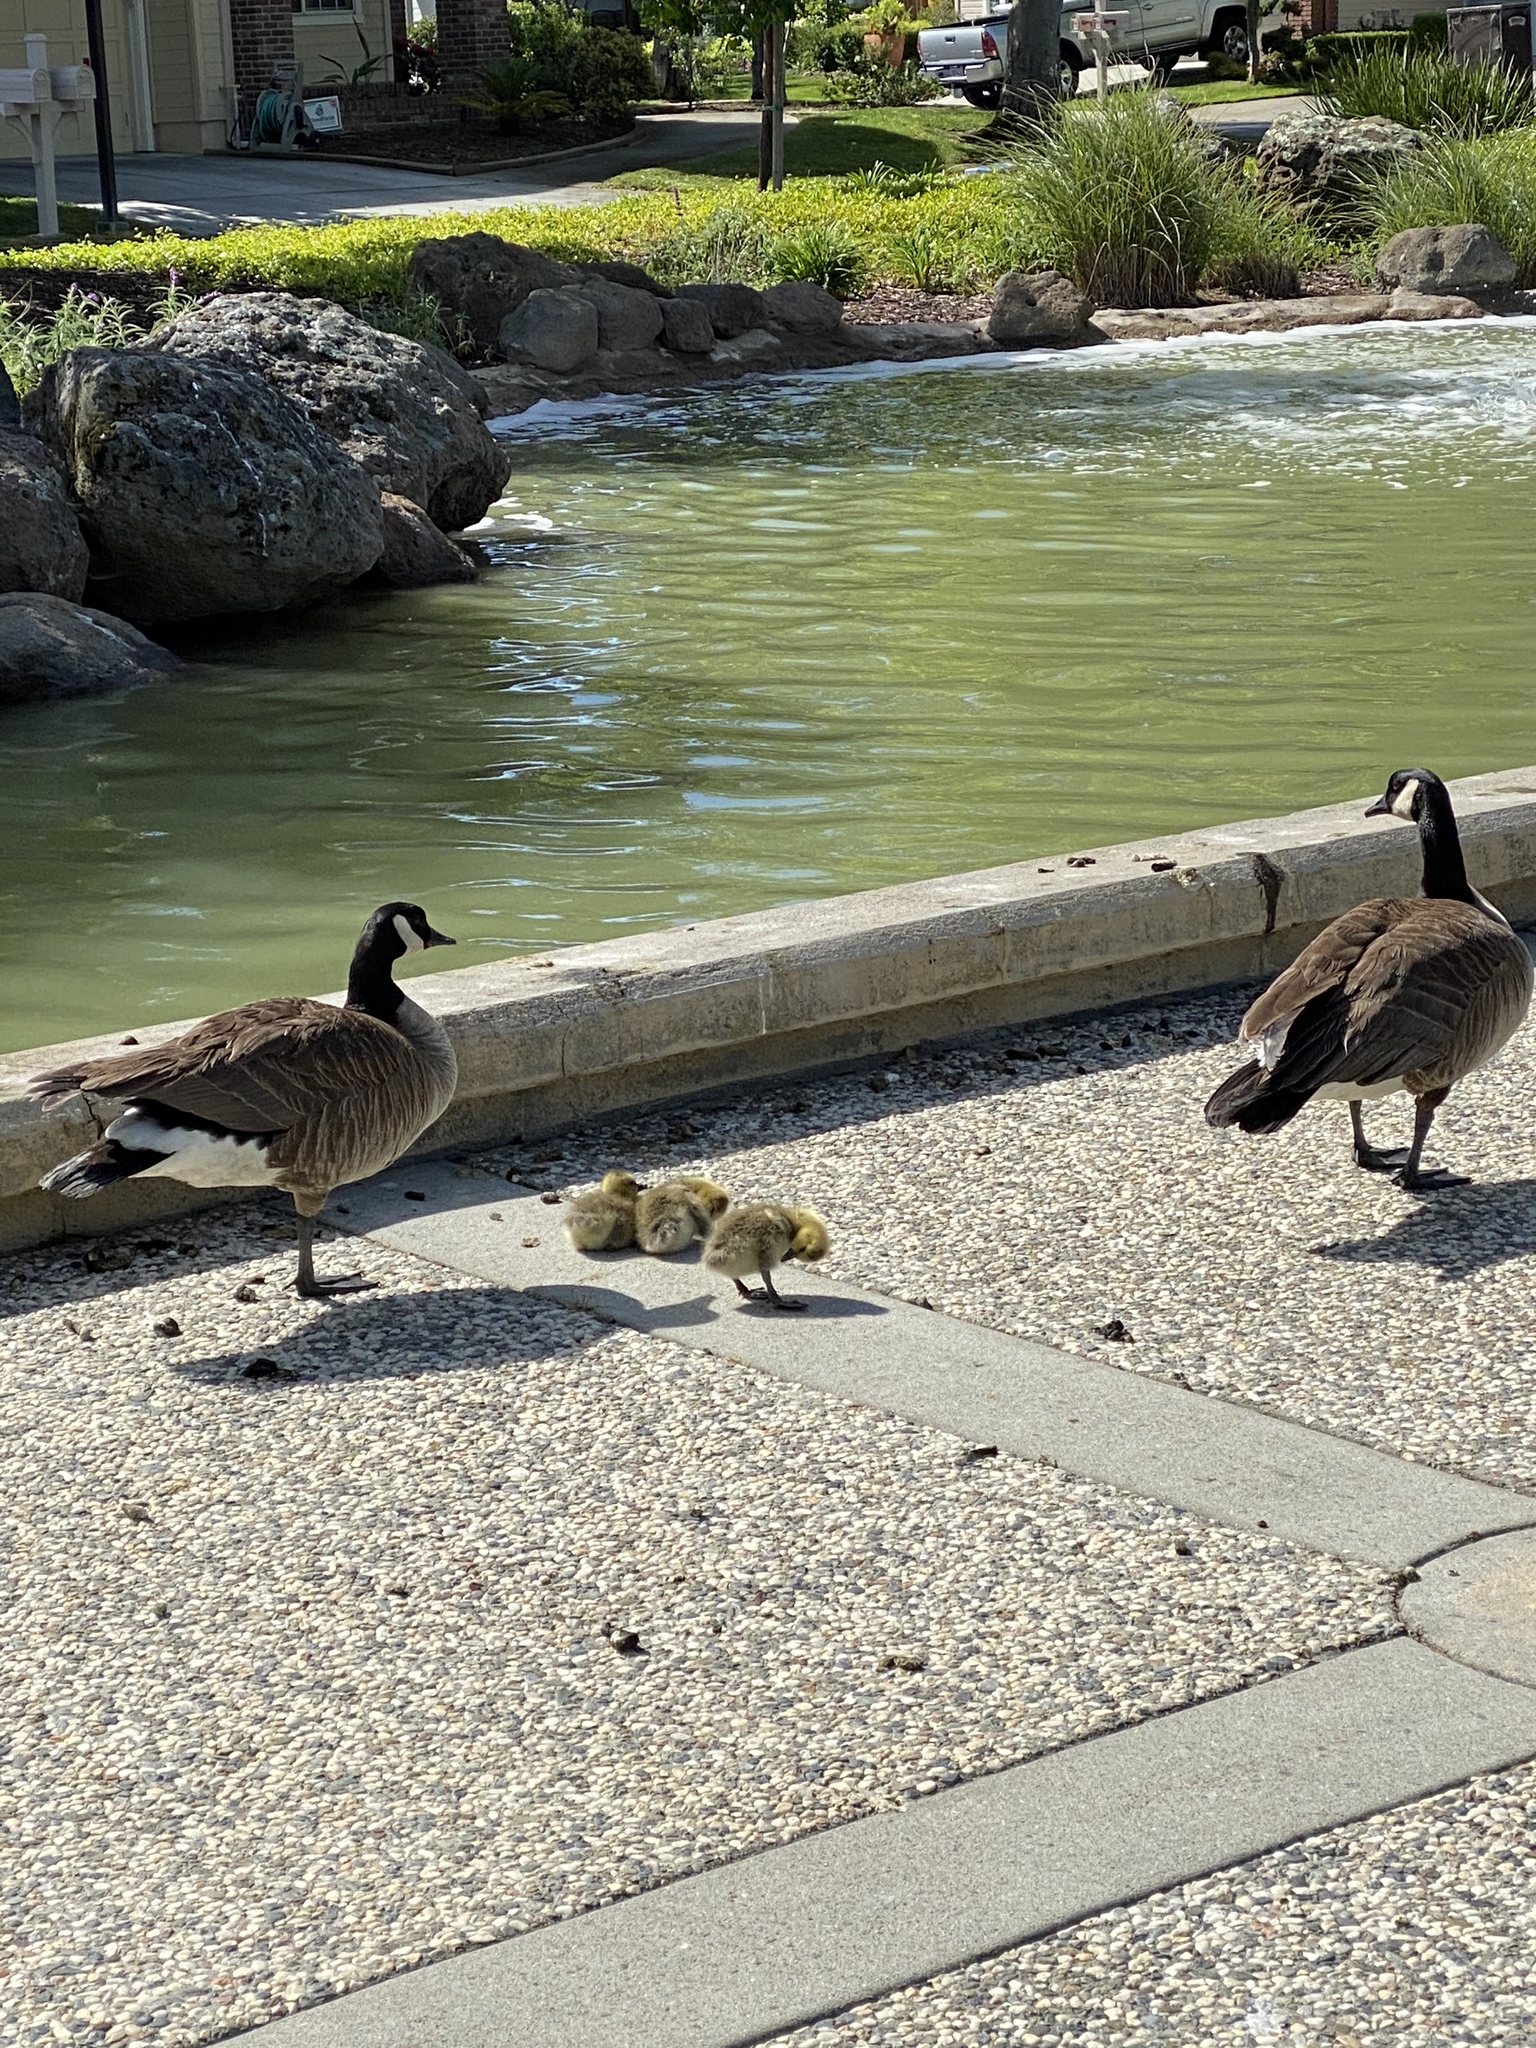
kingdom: Animalia
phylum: Chordata
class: Aves
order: Anseriformes
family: Anatidae
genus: Branta
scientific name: Branta canadensis
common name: Canada goose
